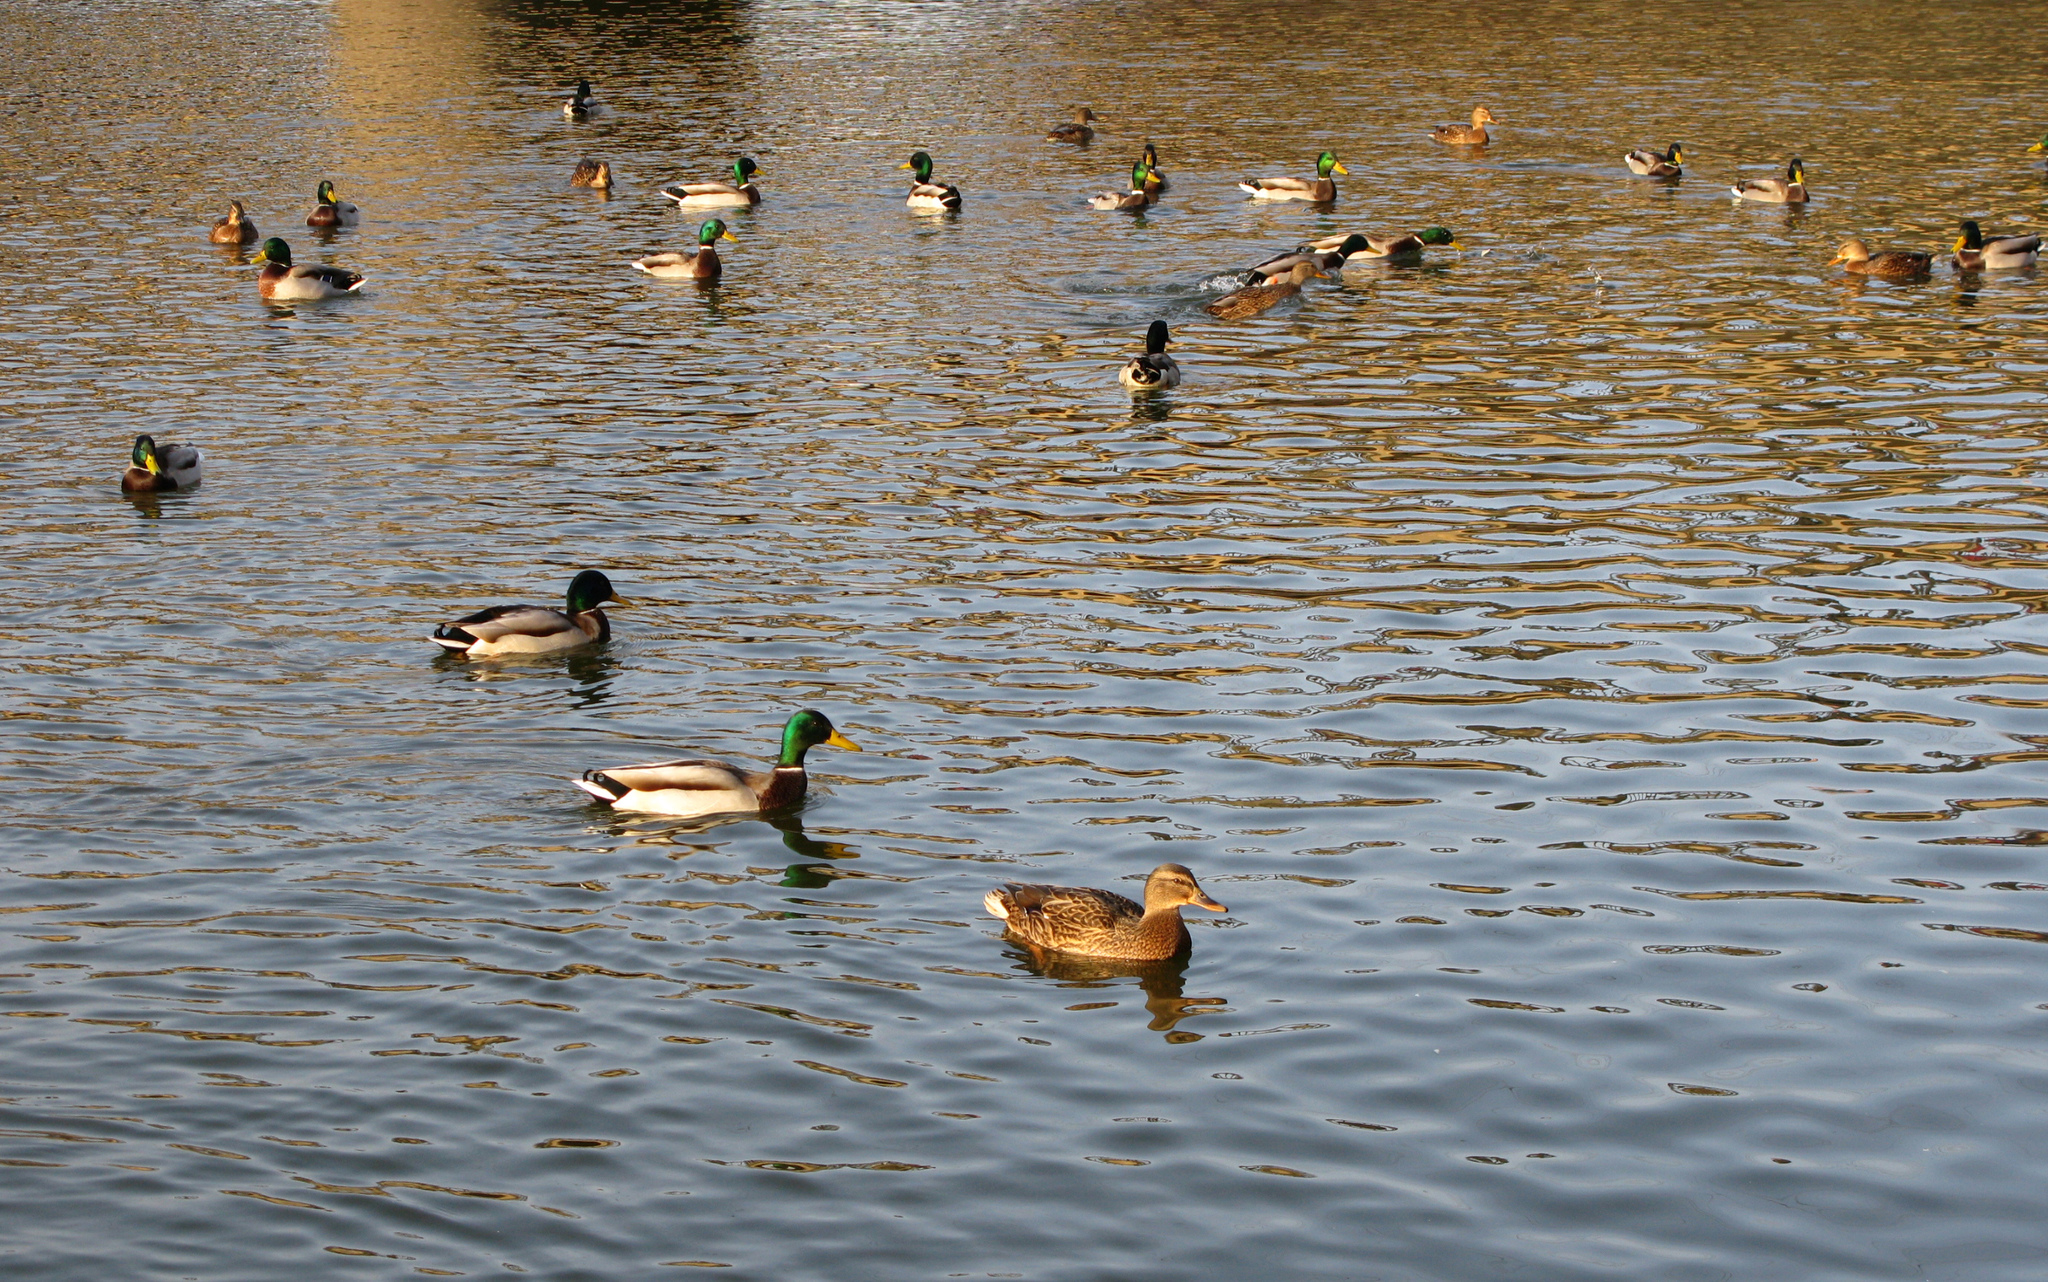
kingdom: Animalia
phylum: Chordata
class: Aves
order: Anseriformes
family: Anatidae
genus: Anas
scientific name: Anas platyrhynchos
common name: Mallard
